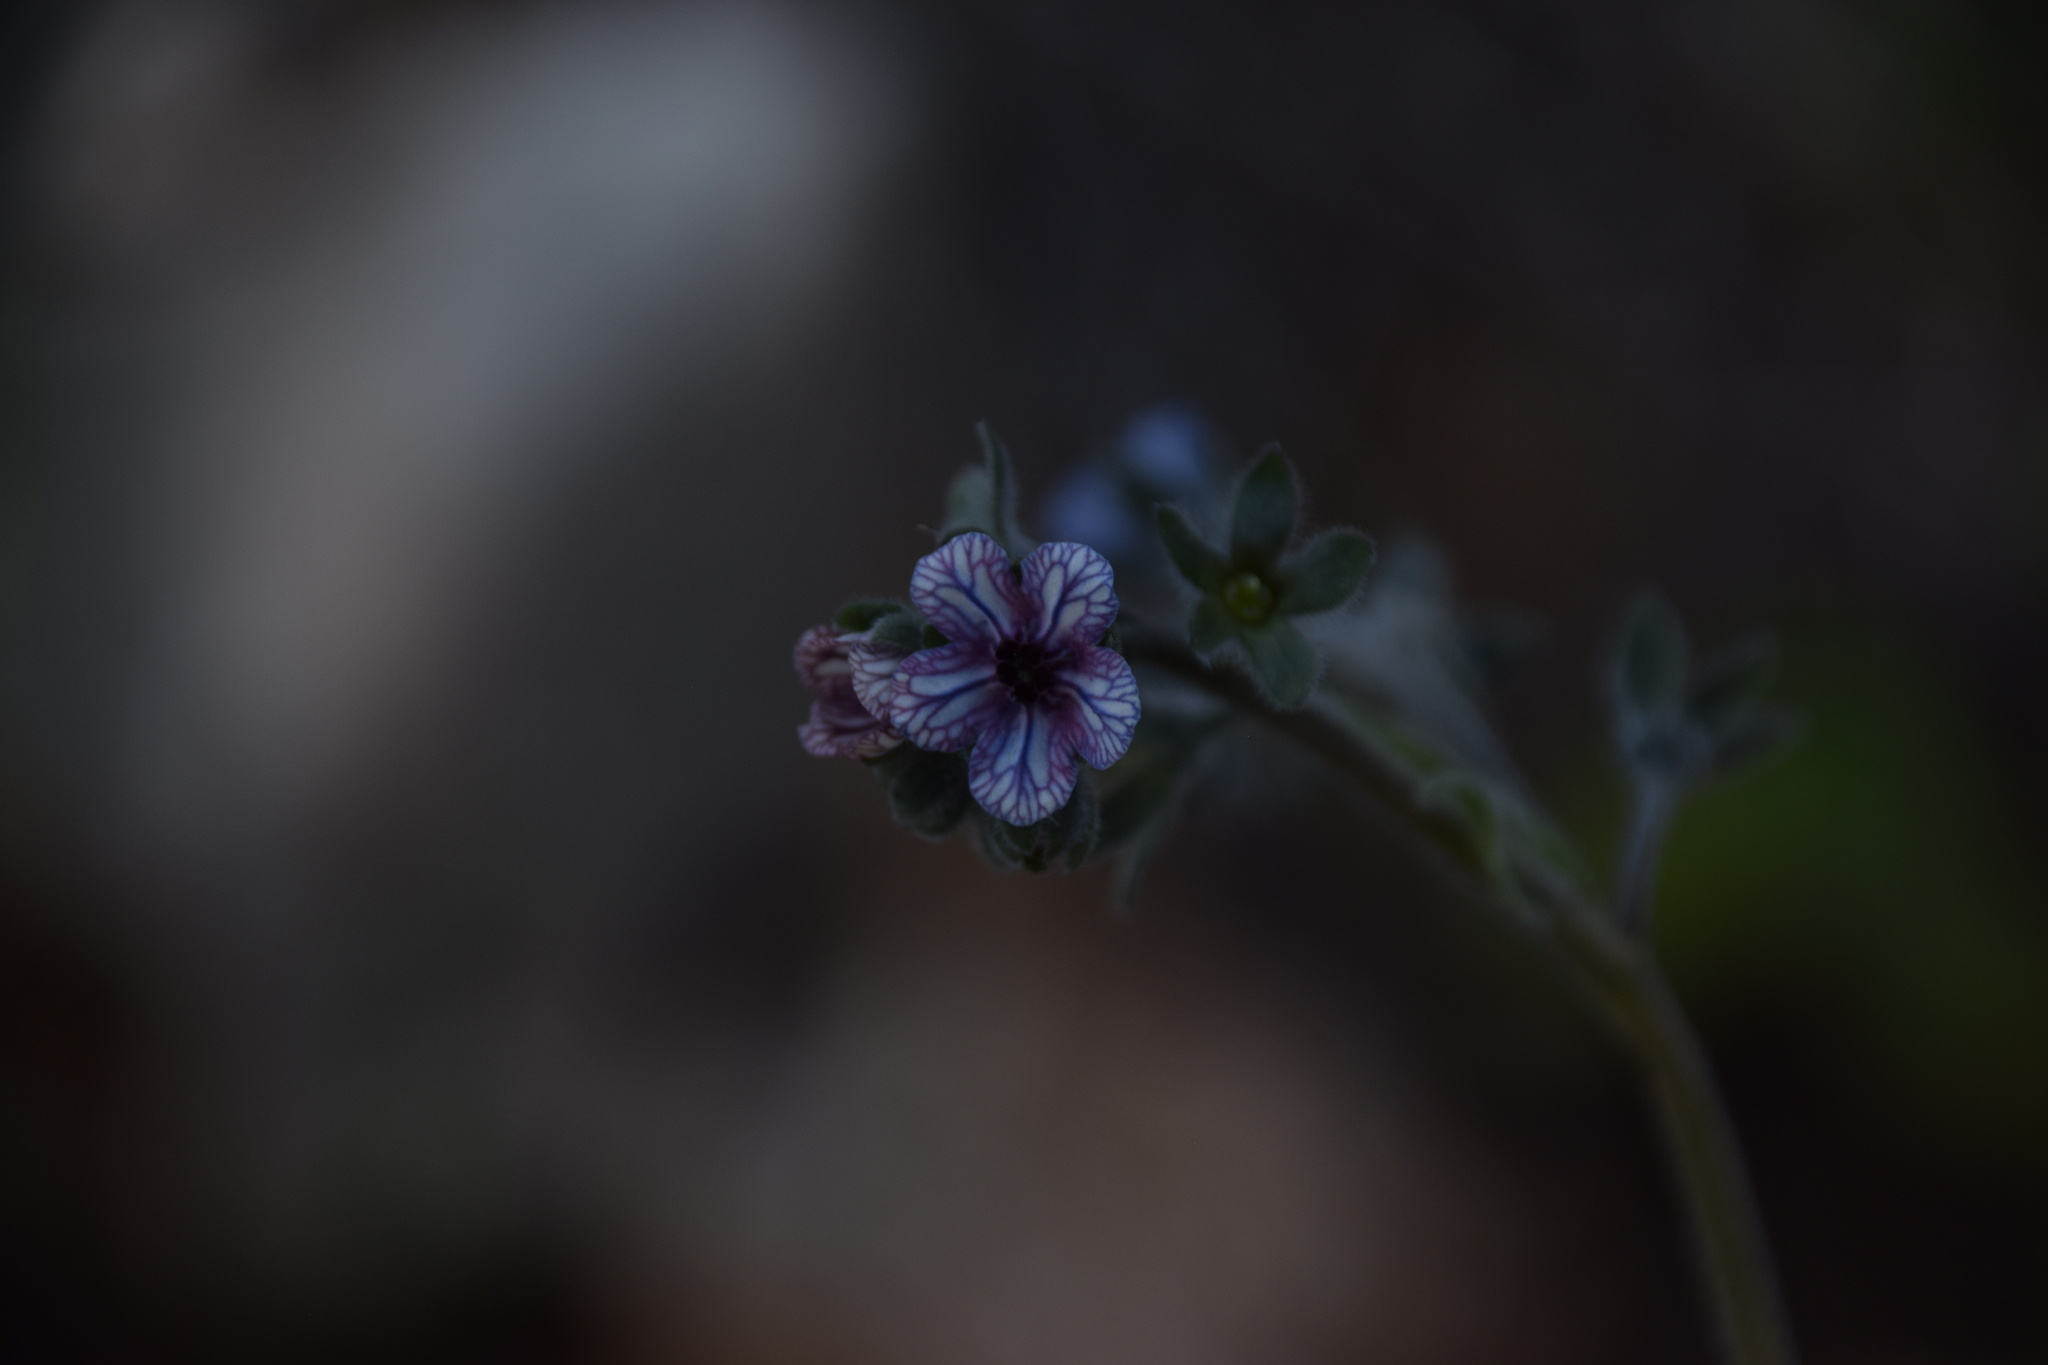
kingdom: Plantae
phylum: Tracheophyta
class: Magnoliopsida
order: Boraginales
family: Boraginaceae
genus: Cynoglossum
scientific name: Cynoglossum creticum
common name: Blue hound's tongue
